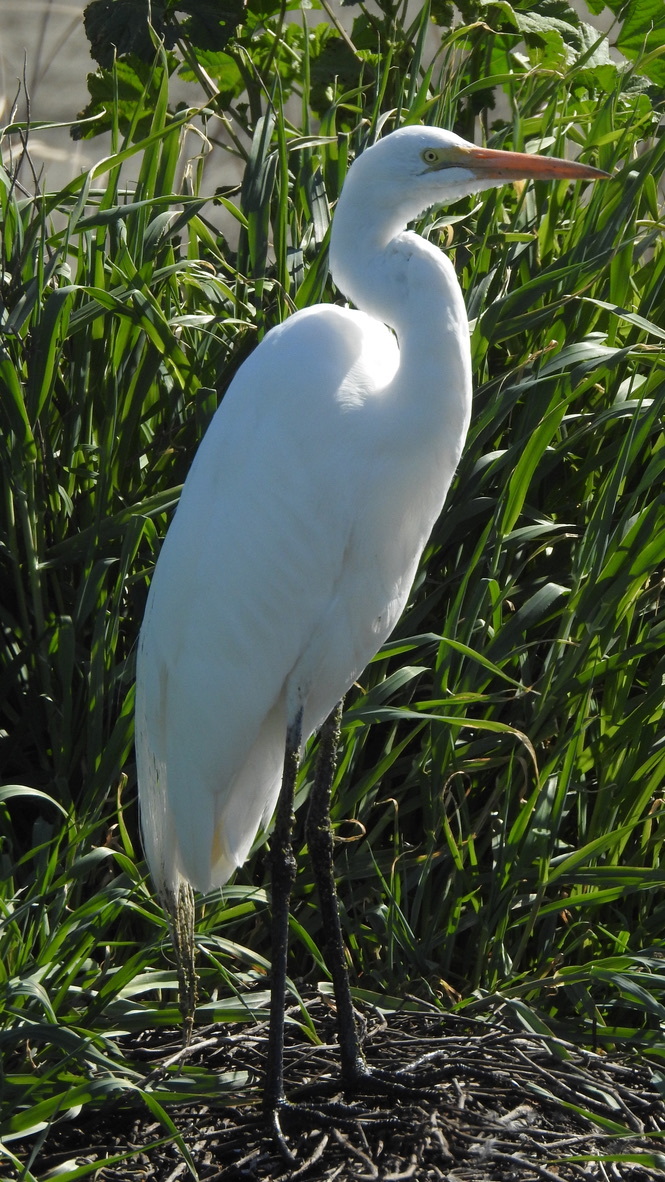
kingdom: Animalia
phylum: Chordata
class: Aves
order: Pelecaniformes
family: Ardeidae
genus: Ardea
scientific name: Ardea alba
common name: Great egret
